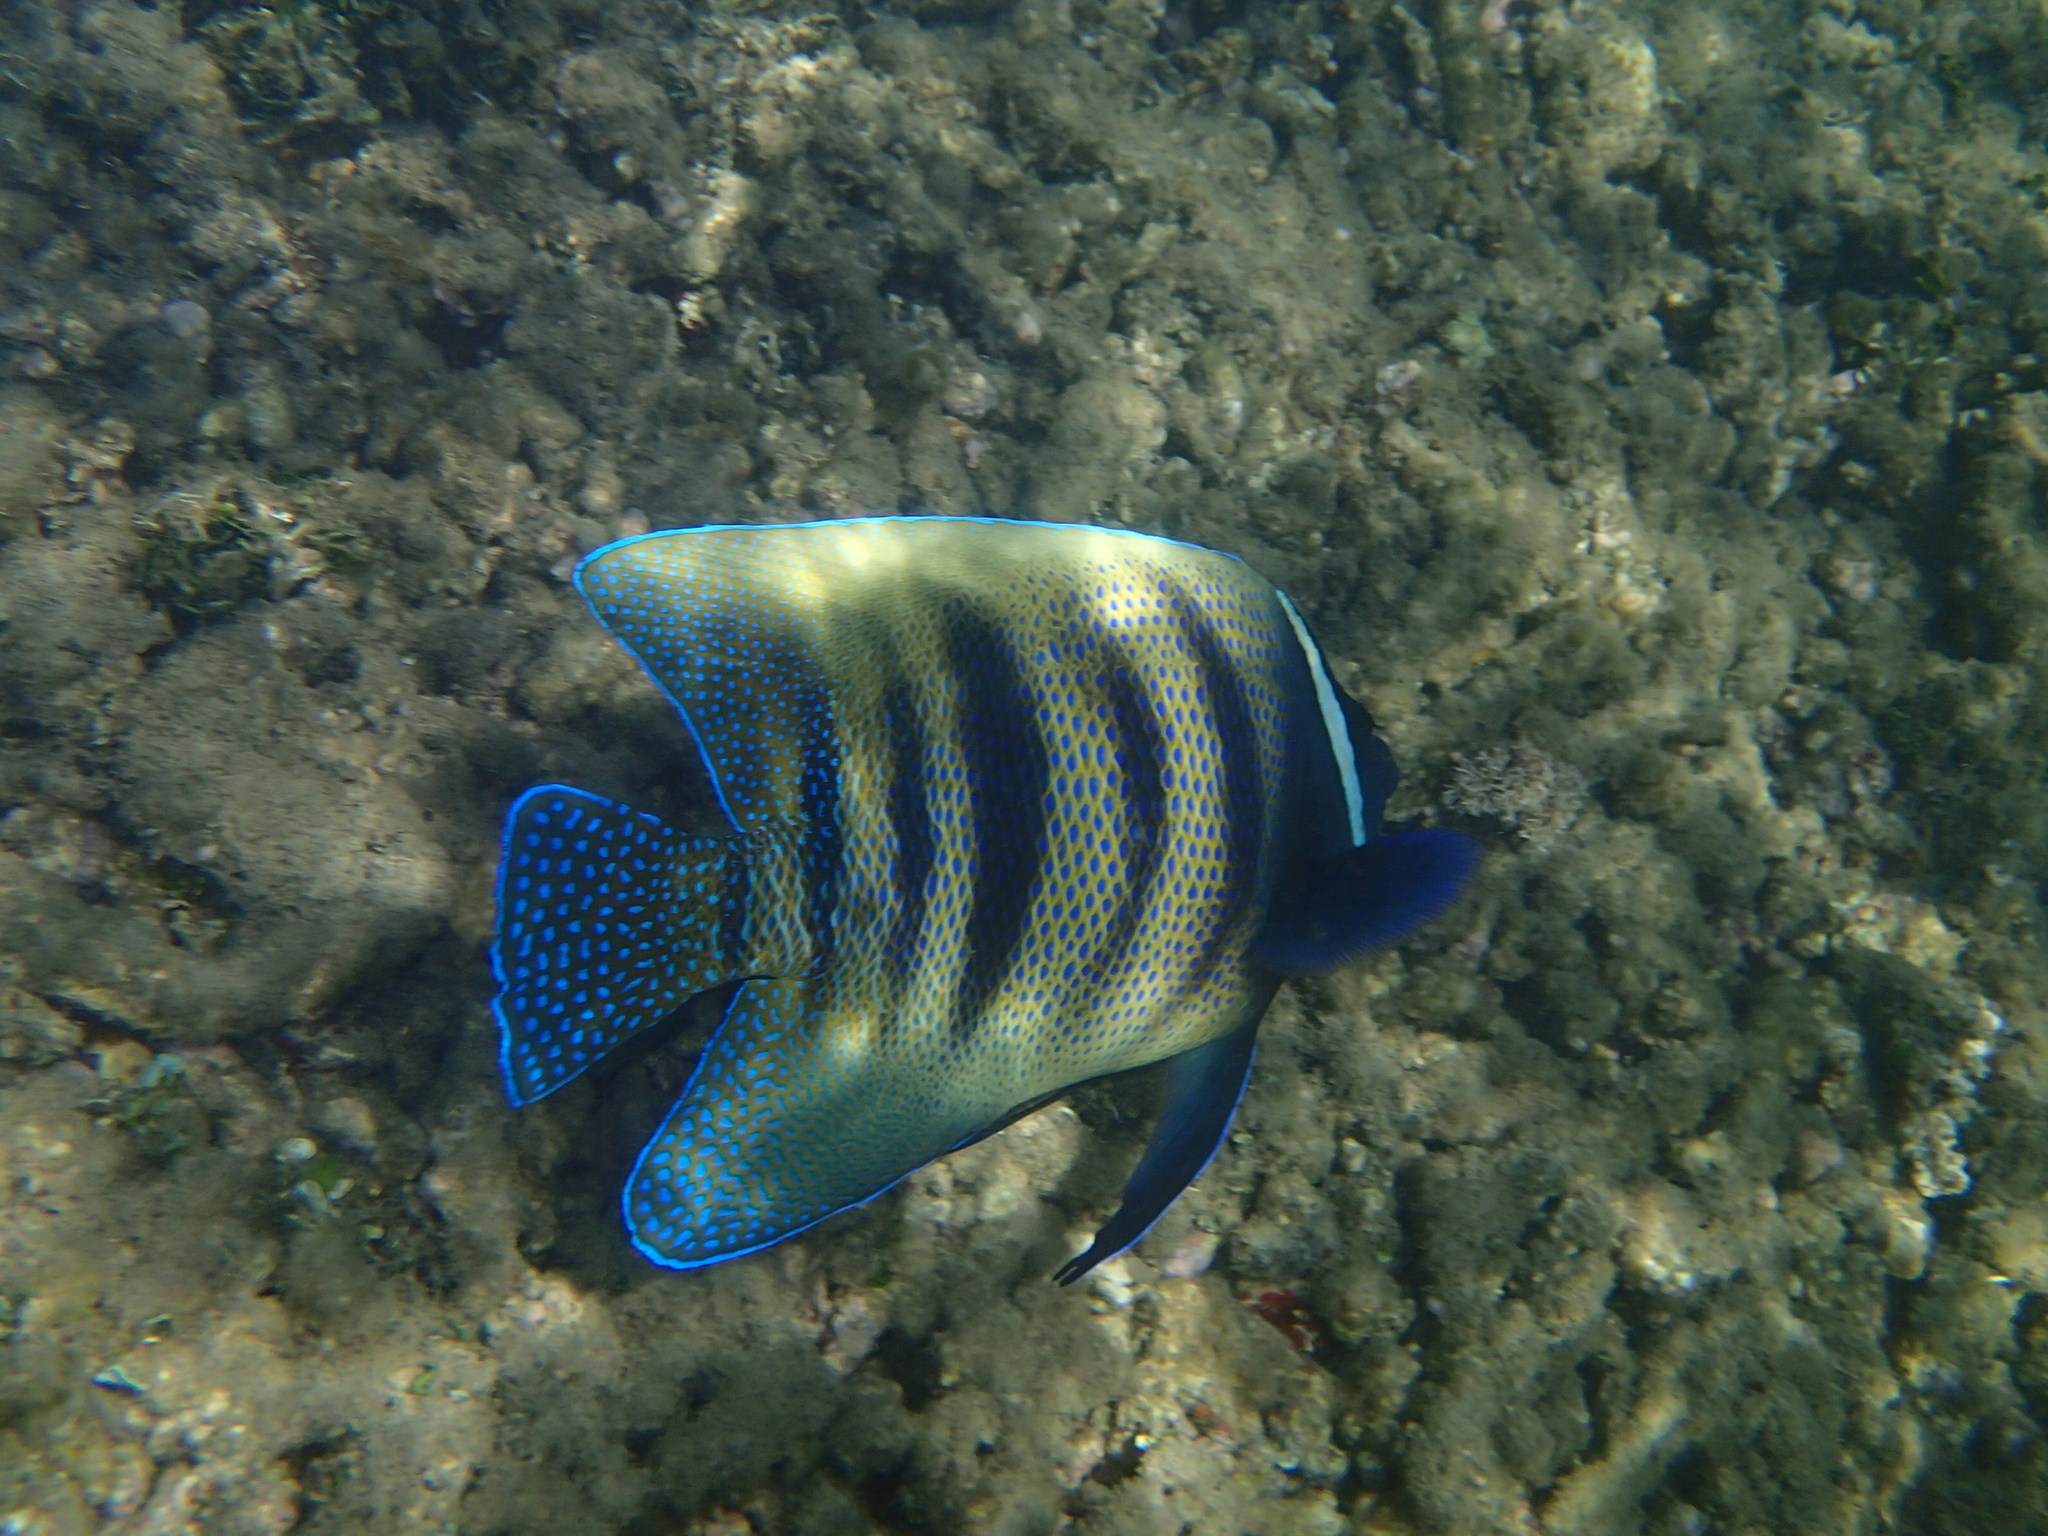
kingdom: Animalia
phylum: Chordata
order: Perciformes
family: Pomacanthidae
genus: Pomacanthus
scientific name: Pomacanthus sexstriatus
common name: Six-banded angelfish
